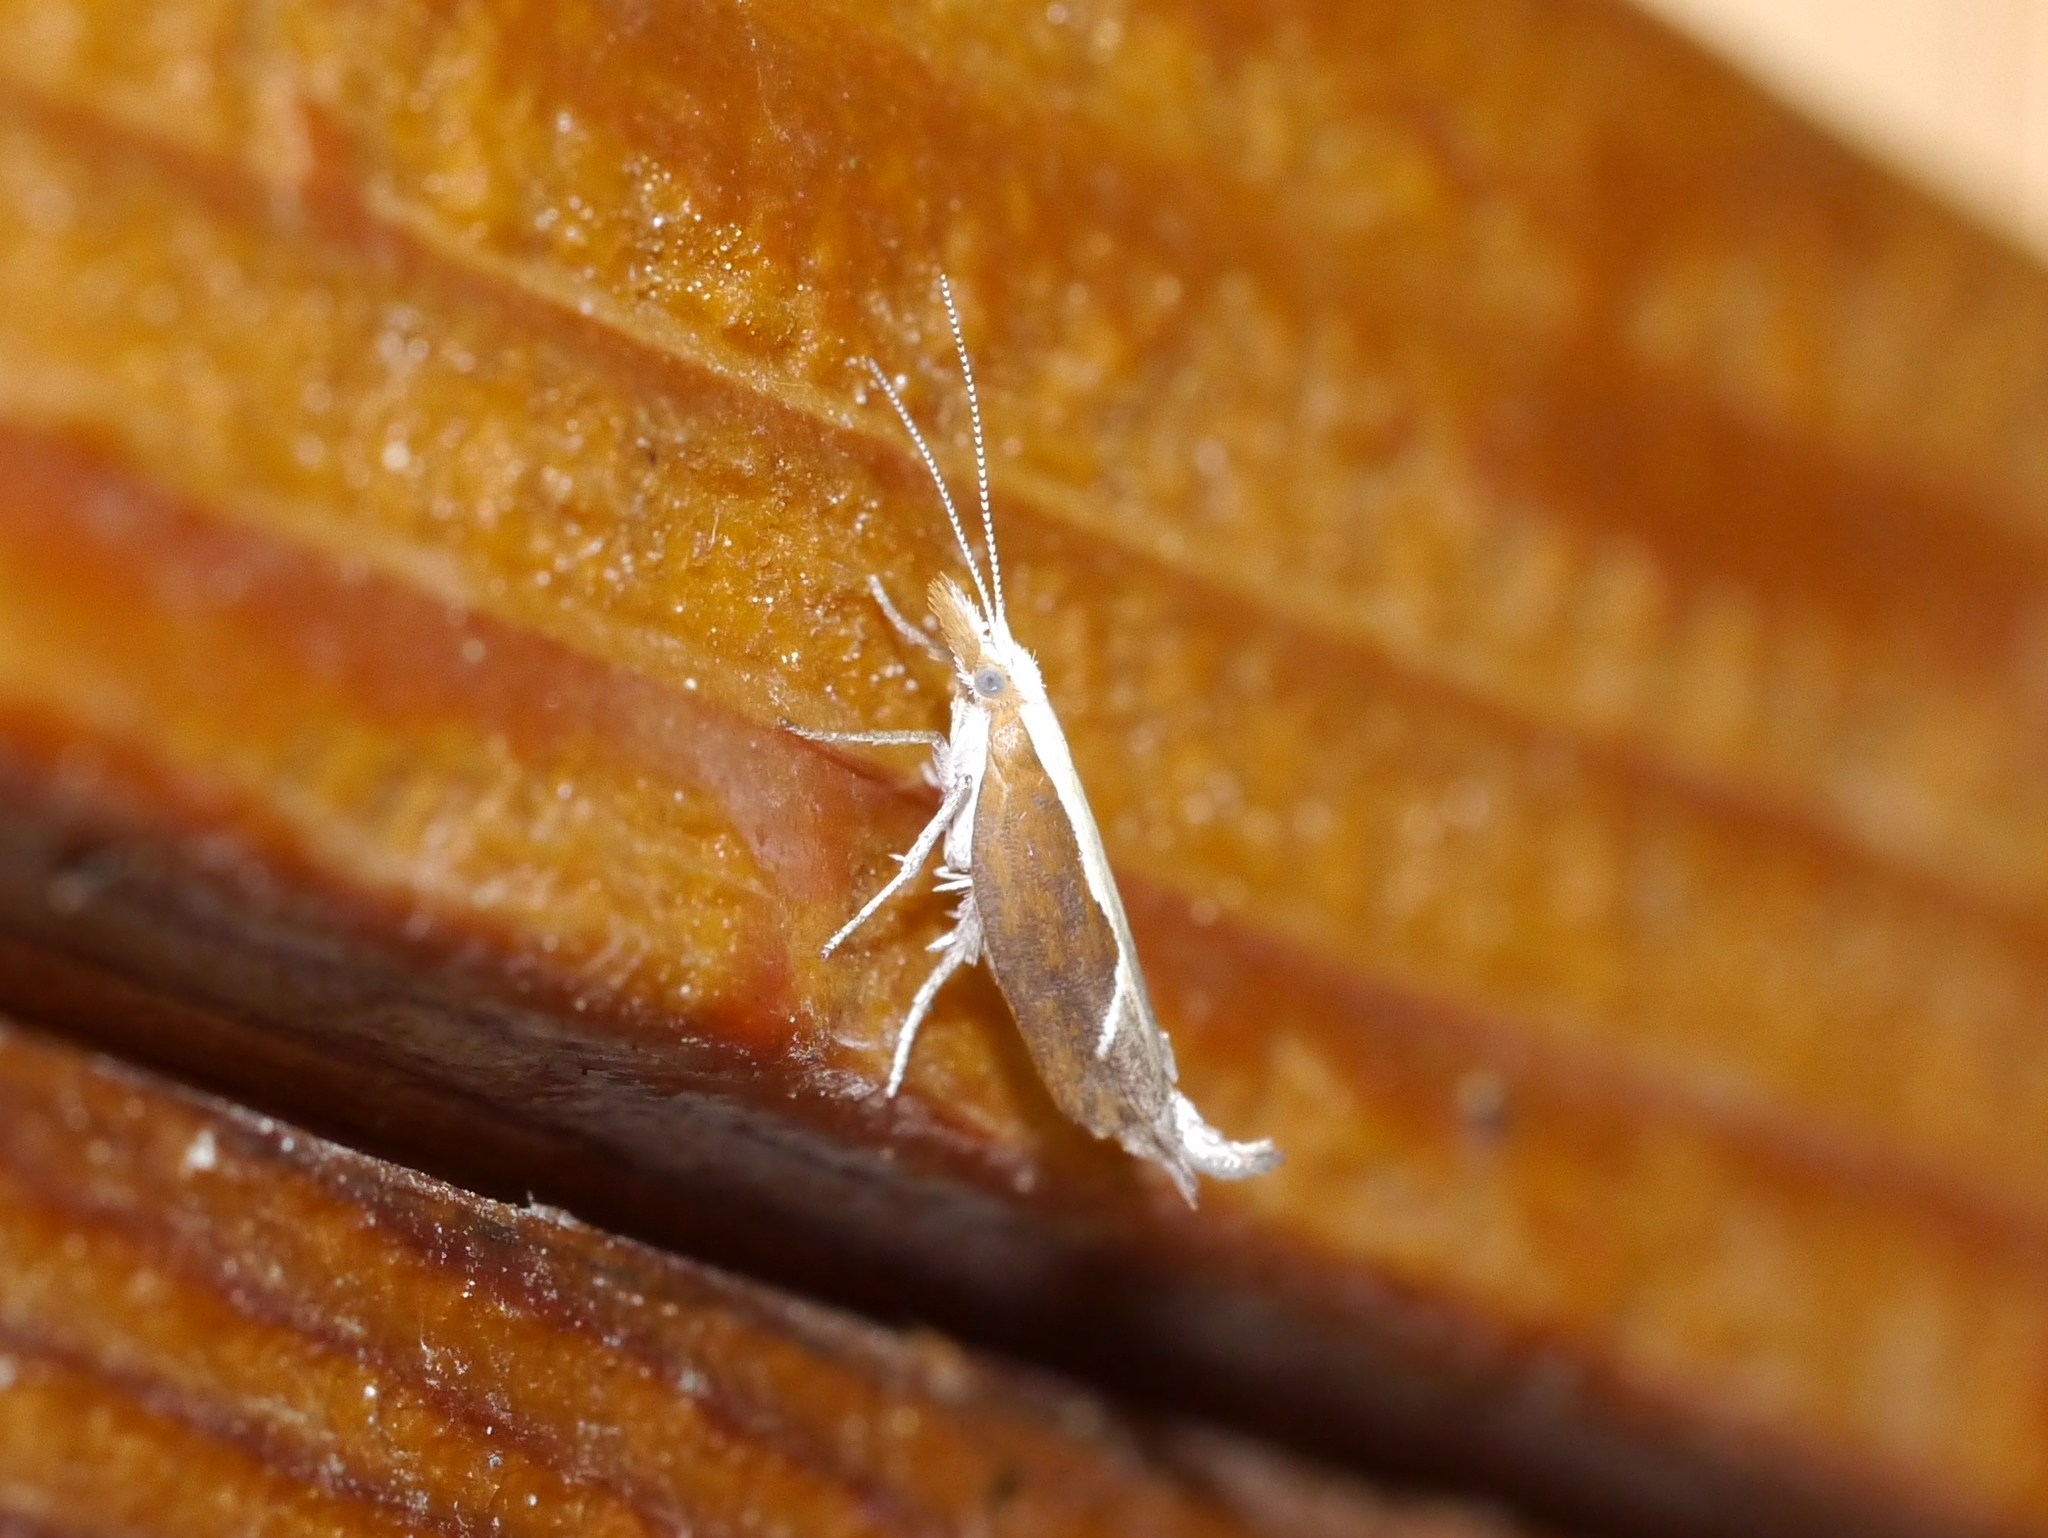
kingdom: Animalia
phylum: Arthropoda
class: Insecta
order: Lepidoptera
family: Ypsolophidae
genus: Ypsolopha
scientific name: Ypsolopha dentella
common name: Honeysuckle moth
